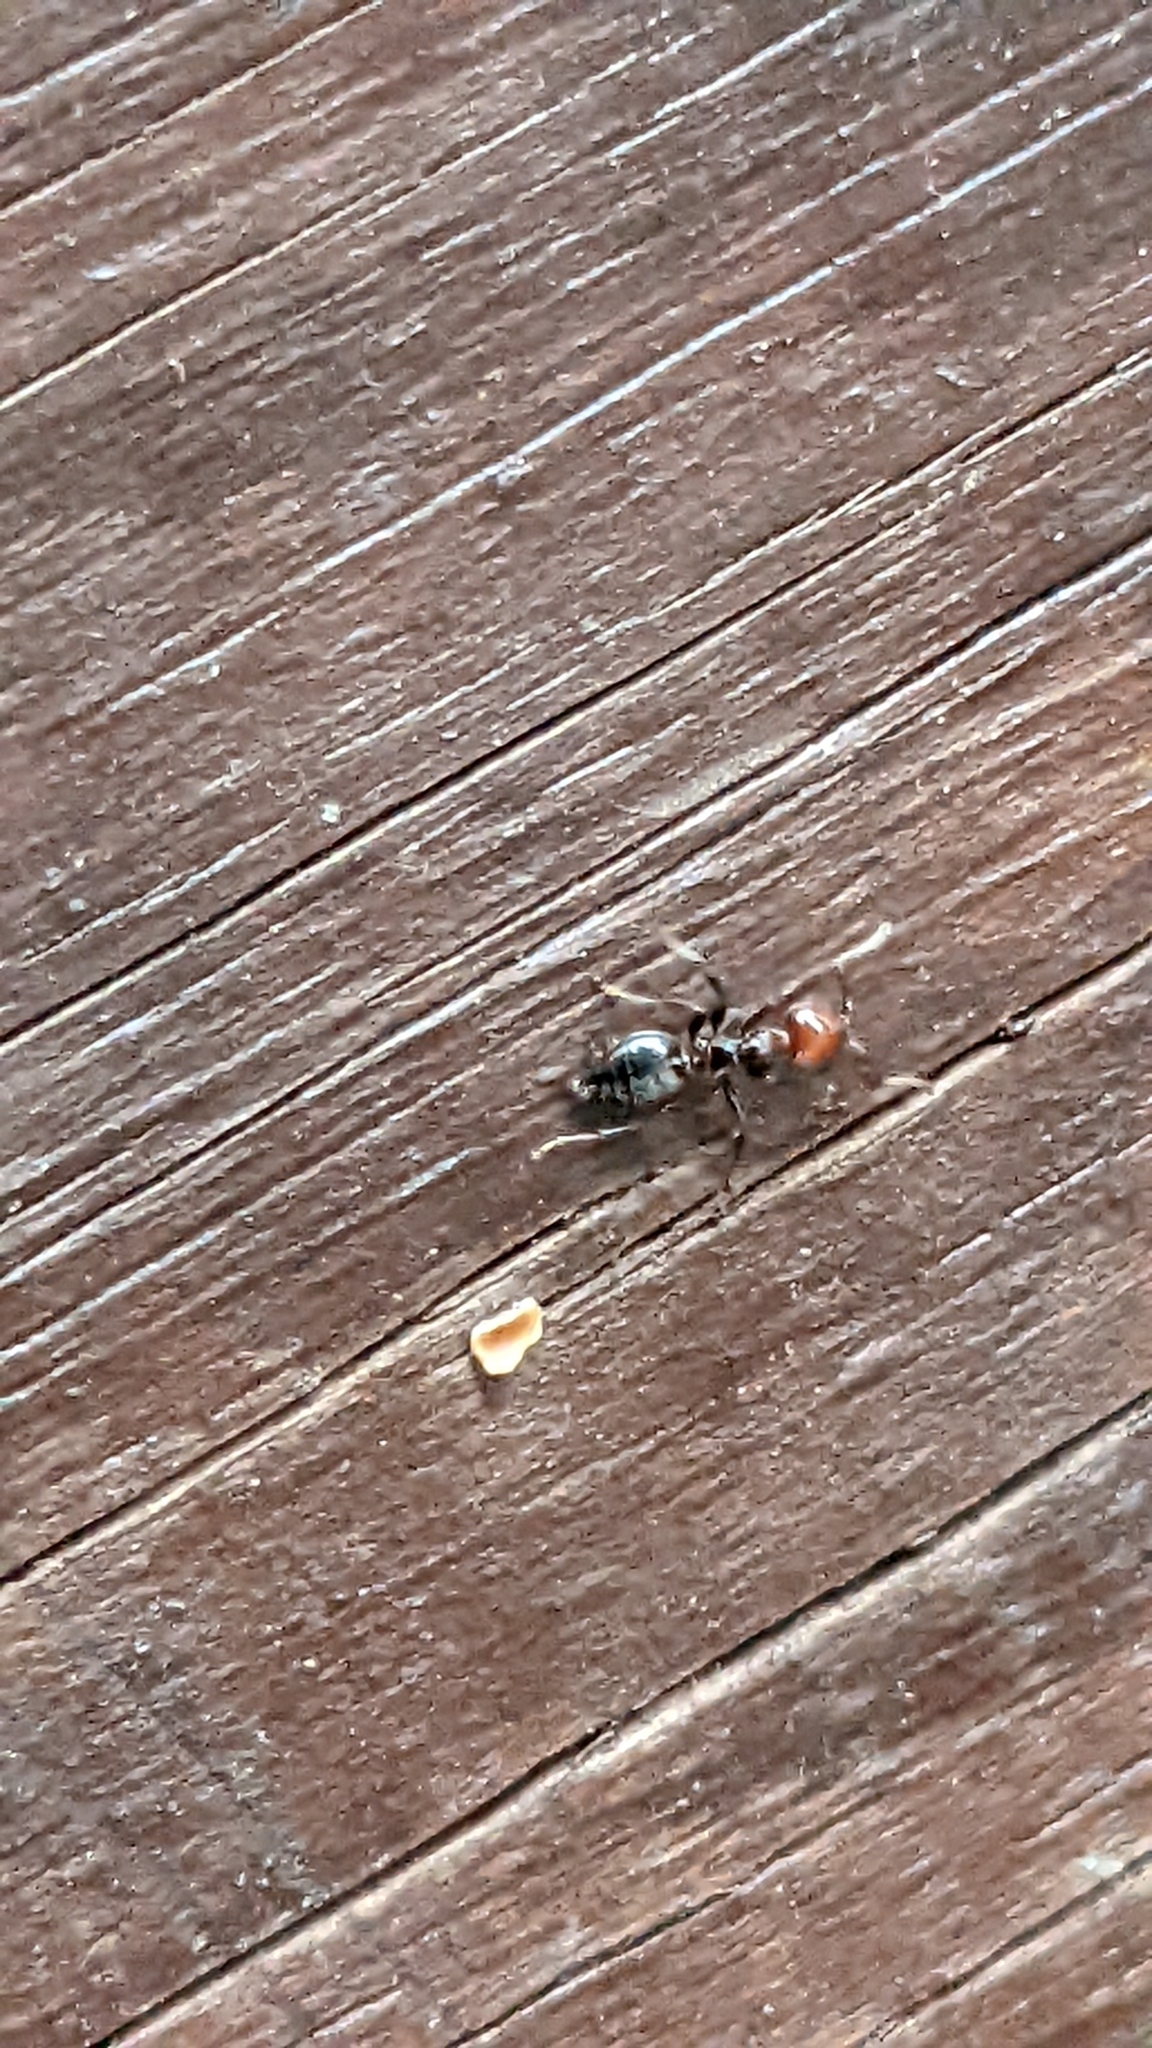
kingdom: Animalia
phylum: Arthropoda
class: Insecta
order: Hymenoptera
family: Formicidae
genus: Crematogaster
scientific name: Crematogaster scutellaris
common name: Fourmi du liège
